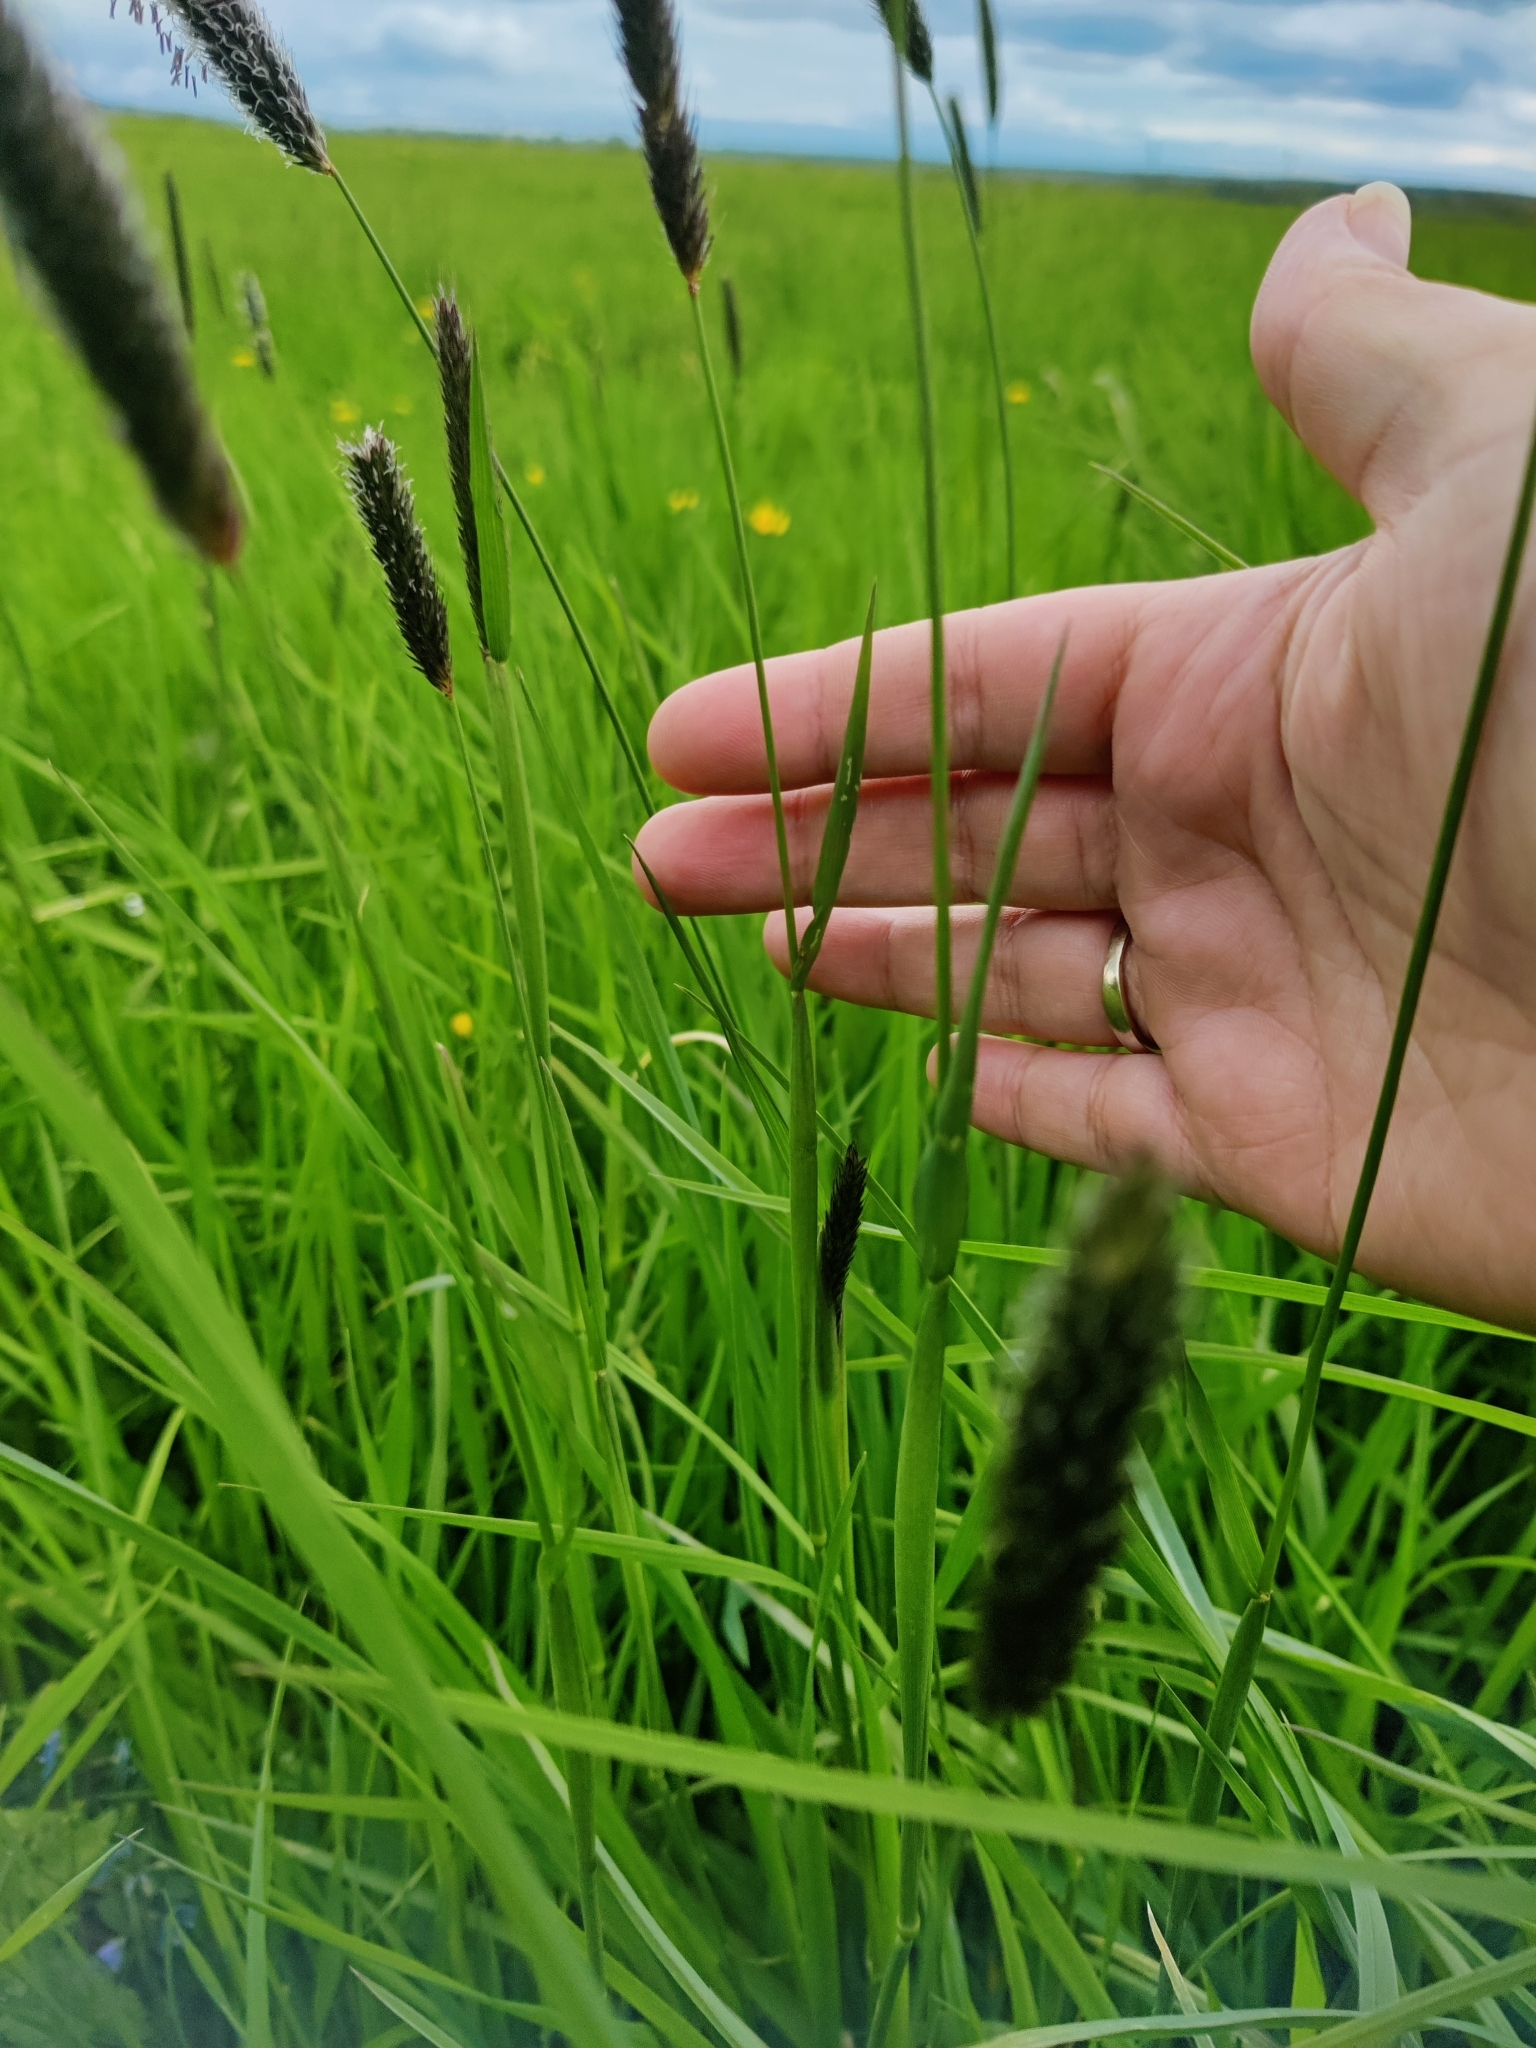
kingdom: Plantae
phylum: Tracheophyta
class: Liliopsida
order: Poales
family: Poaceae
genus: Alopecurus
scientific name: Alopecurus pratensis
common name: Meadow foxtail
